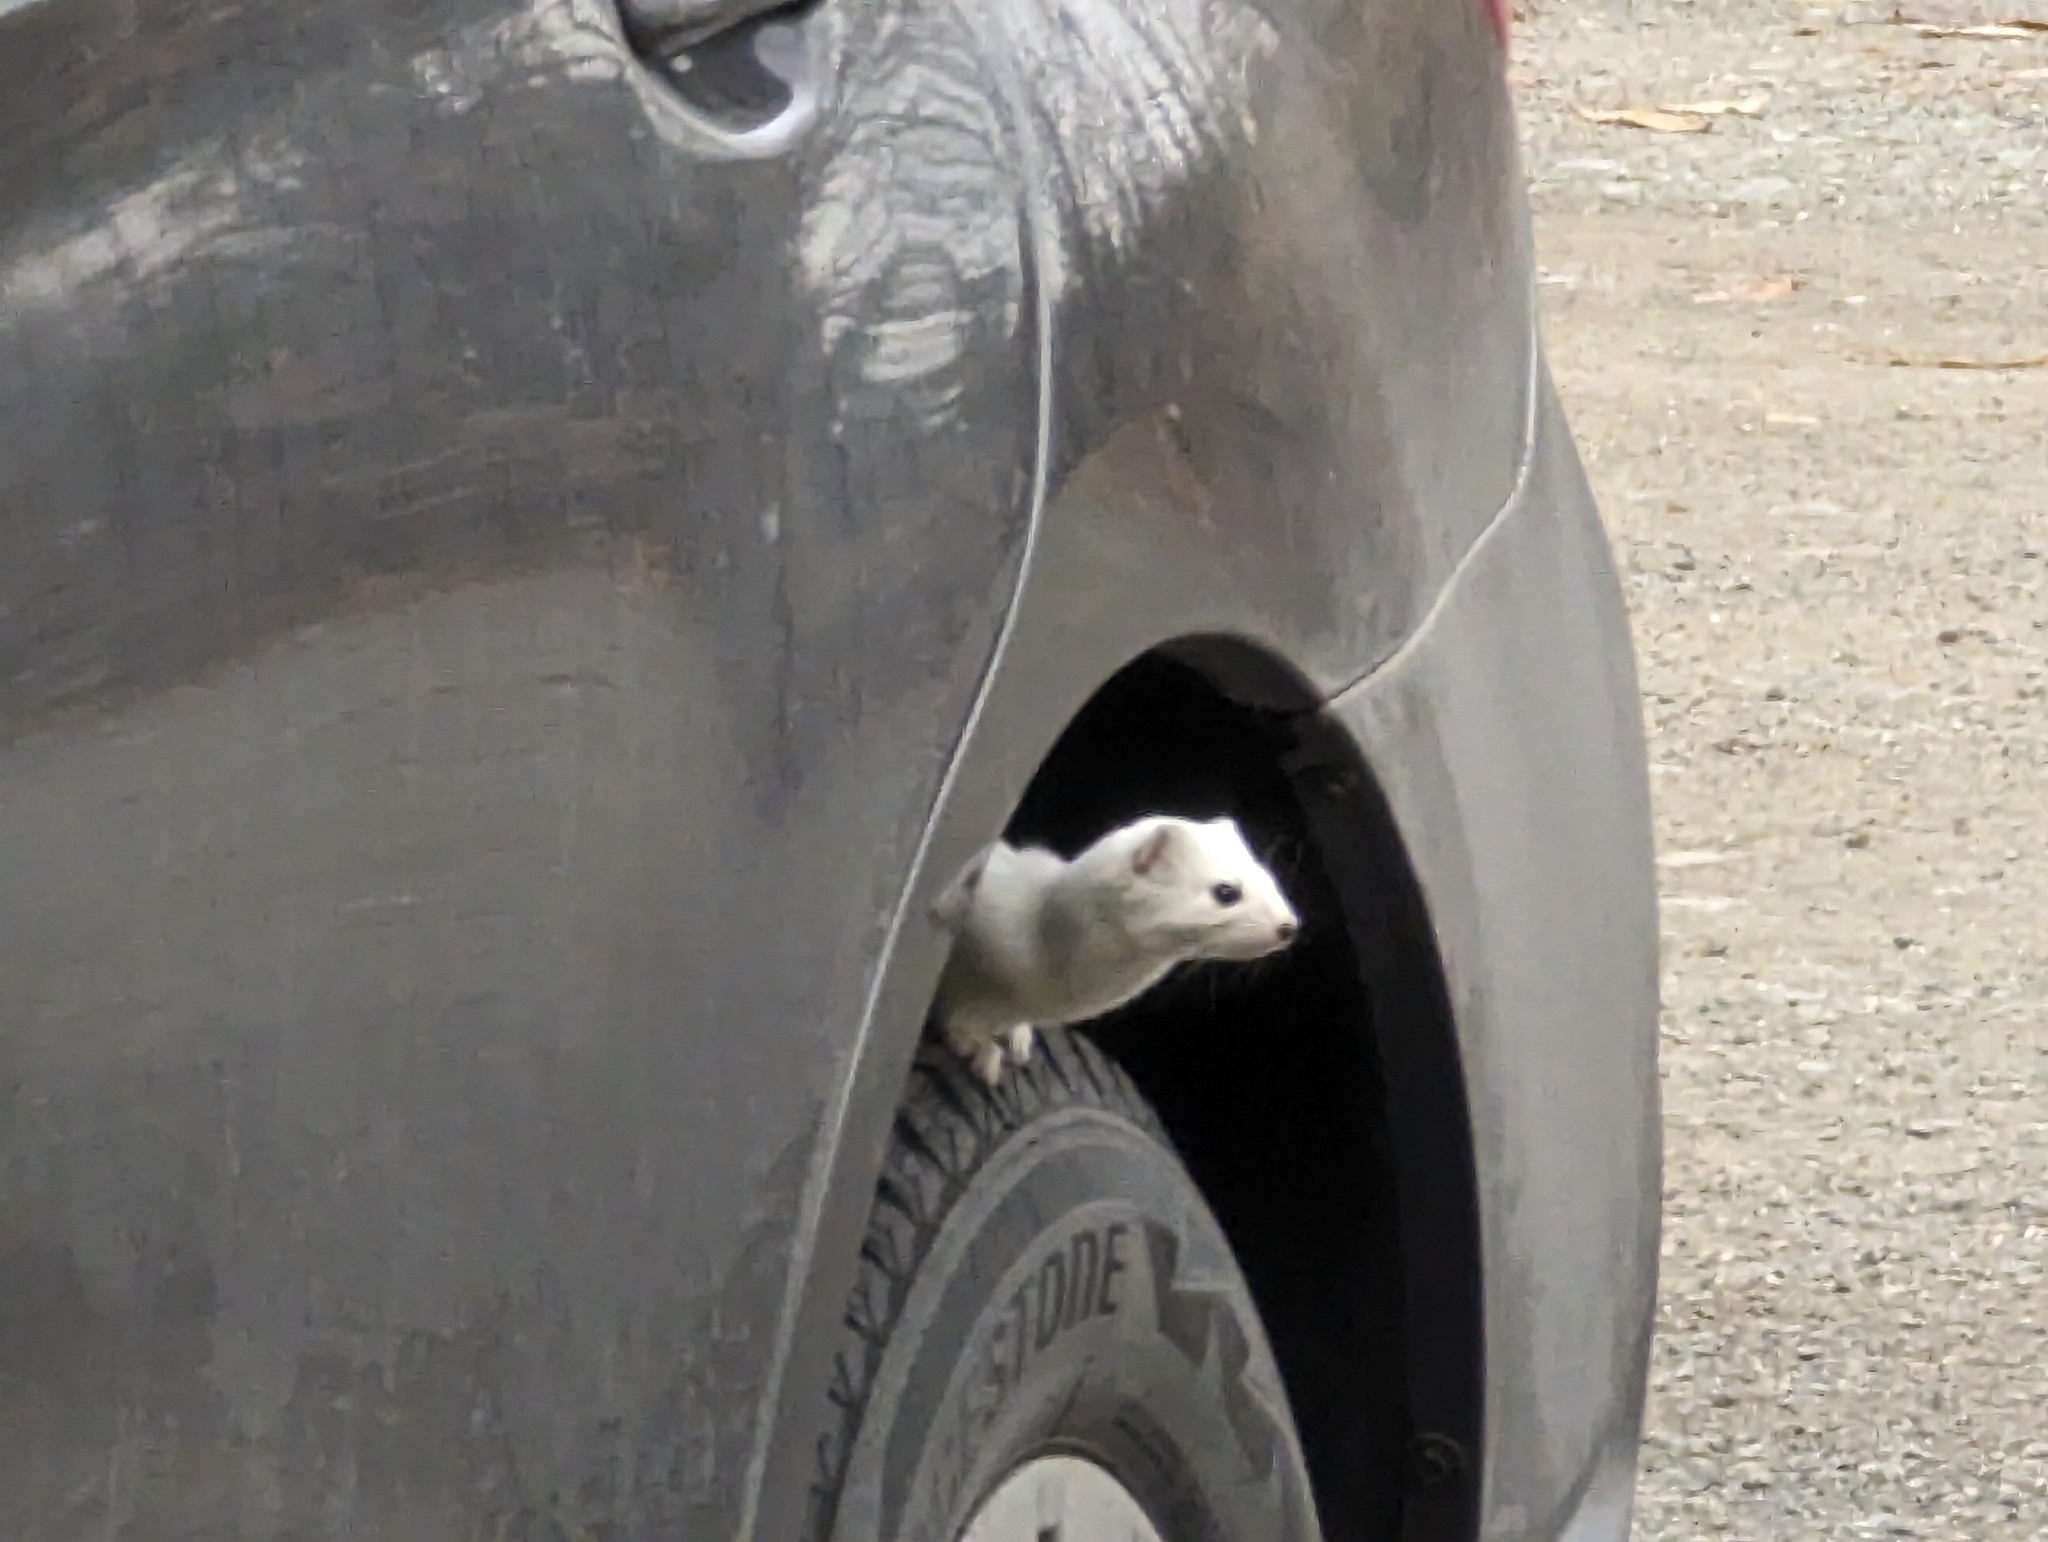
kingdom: Animalia
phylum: Chordata
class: Mammalia
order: Carnivora
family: Mustelidae
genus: Mustela
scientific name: Mustela erminea
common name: Stoat
